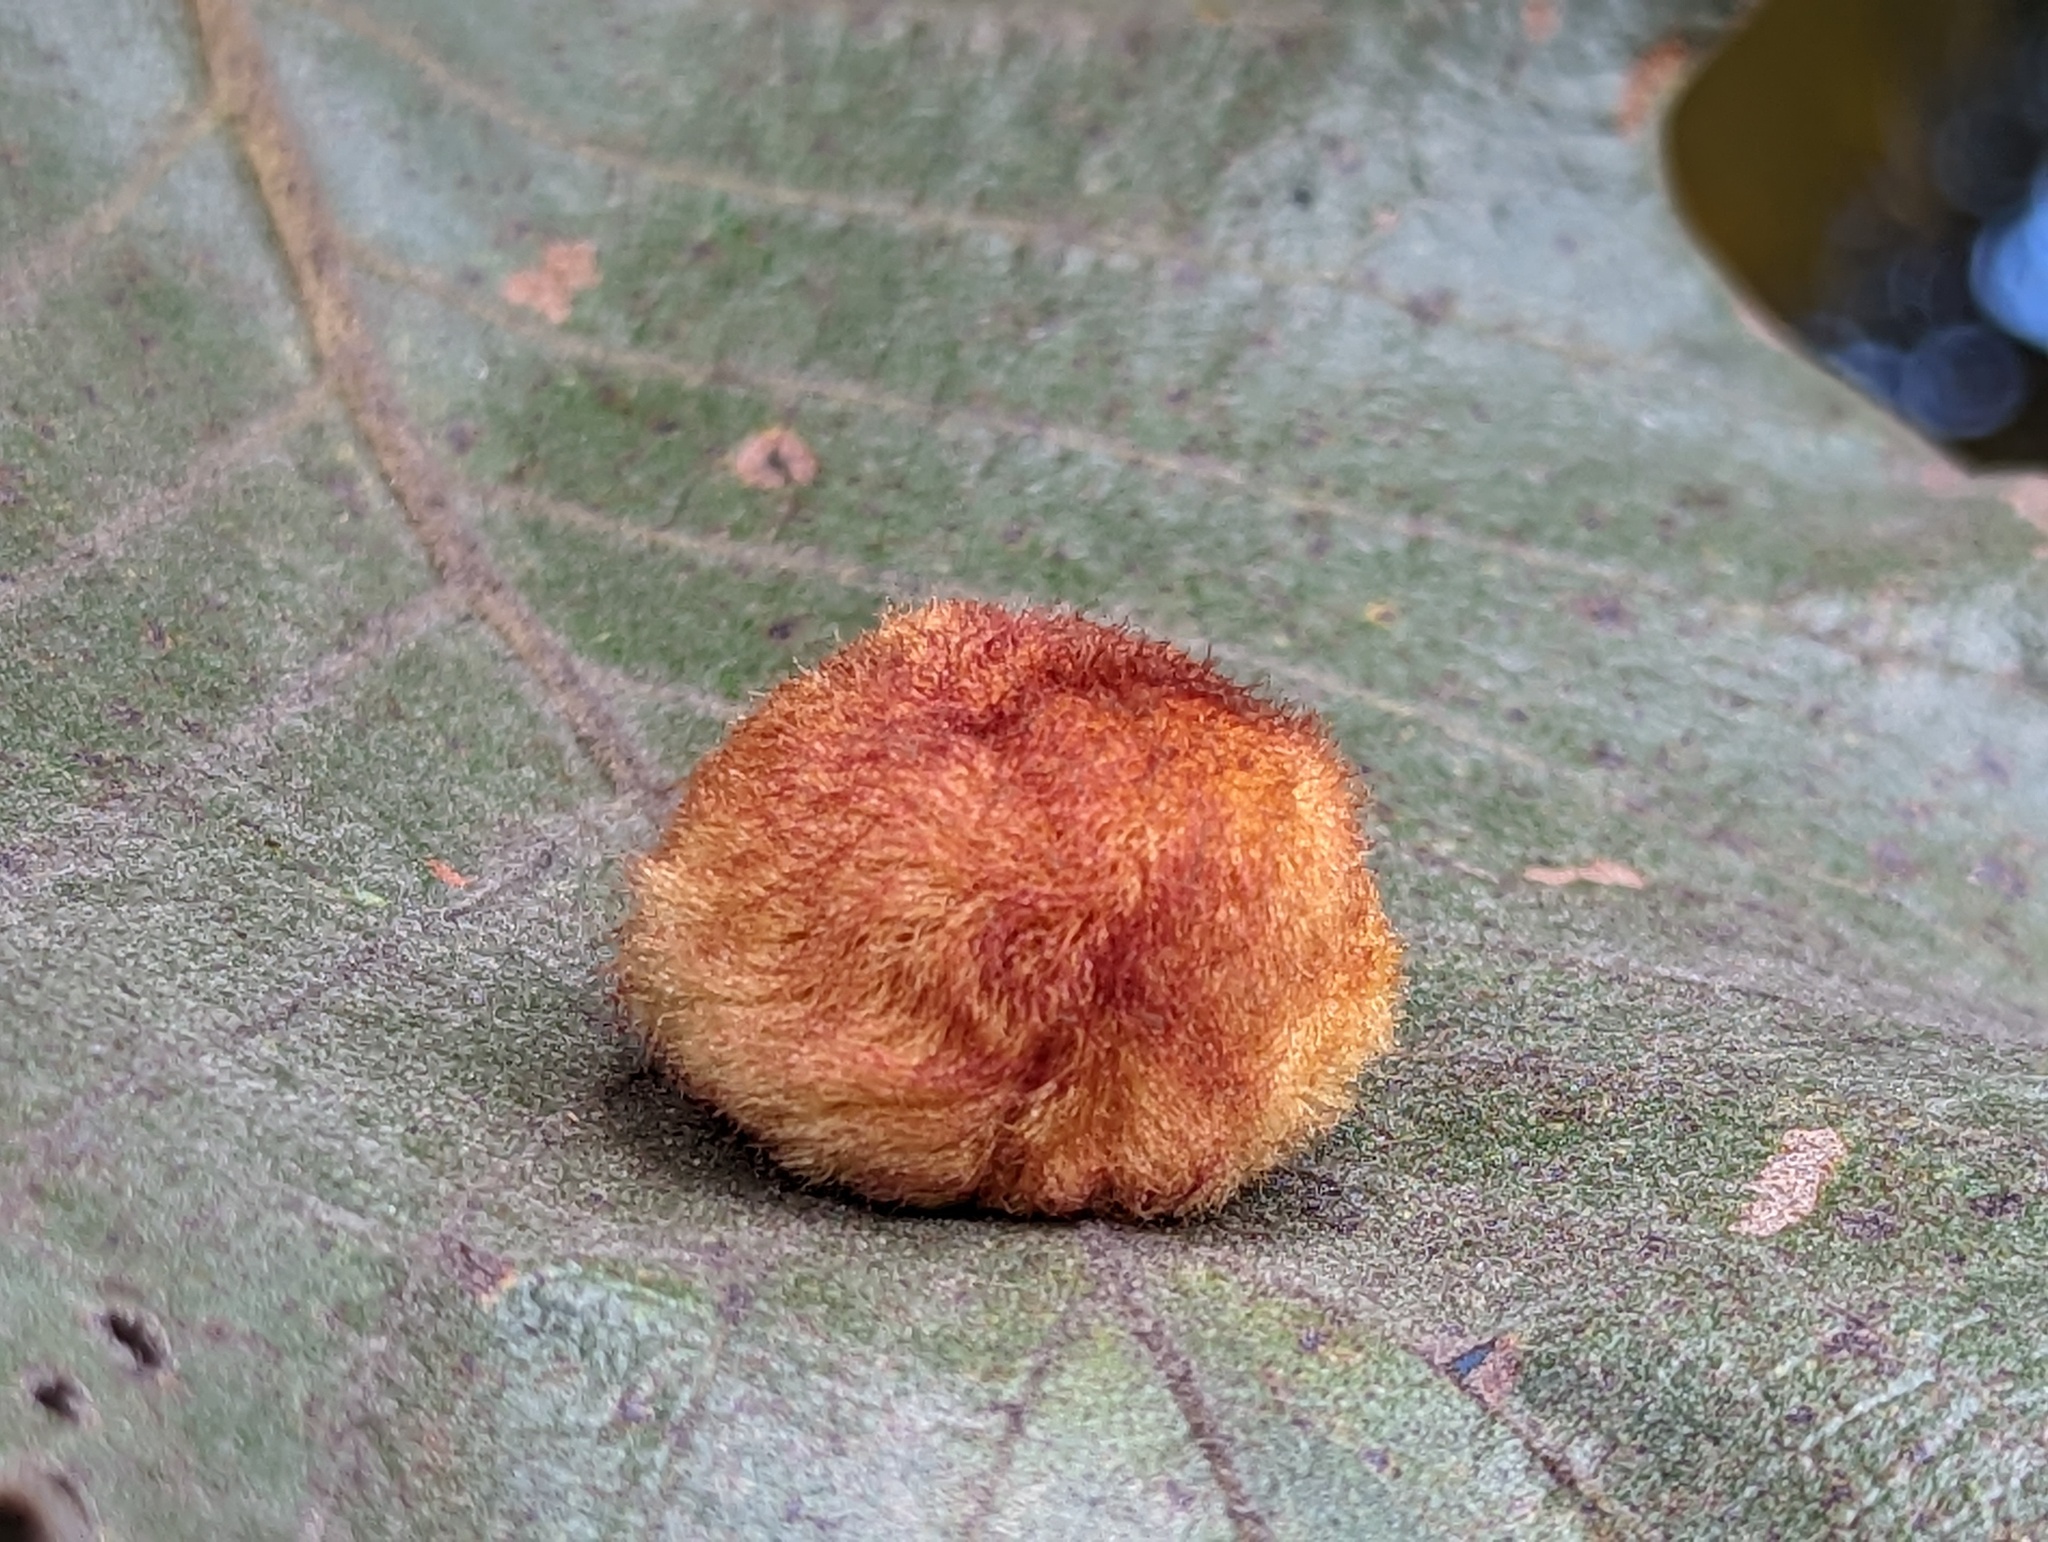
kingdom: Animalia
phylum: Arthropoda
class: Insecta
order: Hymenoptera
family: Cynipidae
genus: Striatoandricus
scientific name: Striatoandricus
